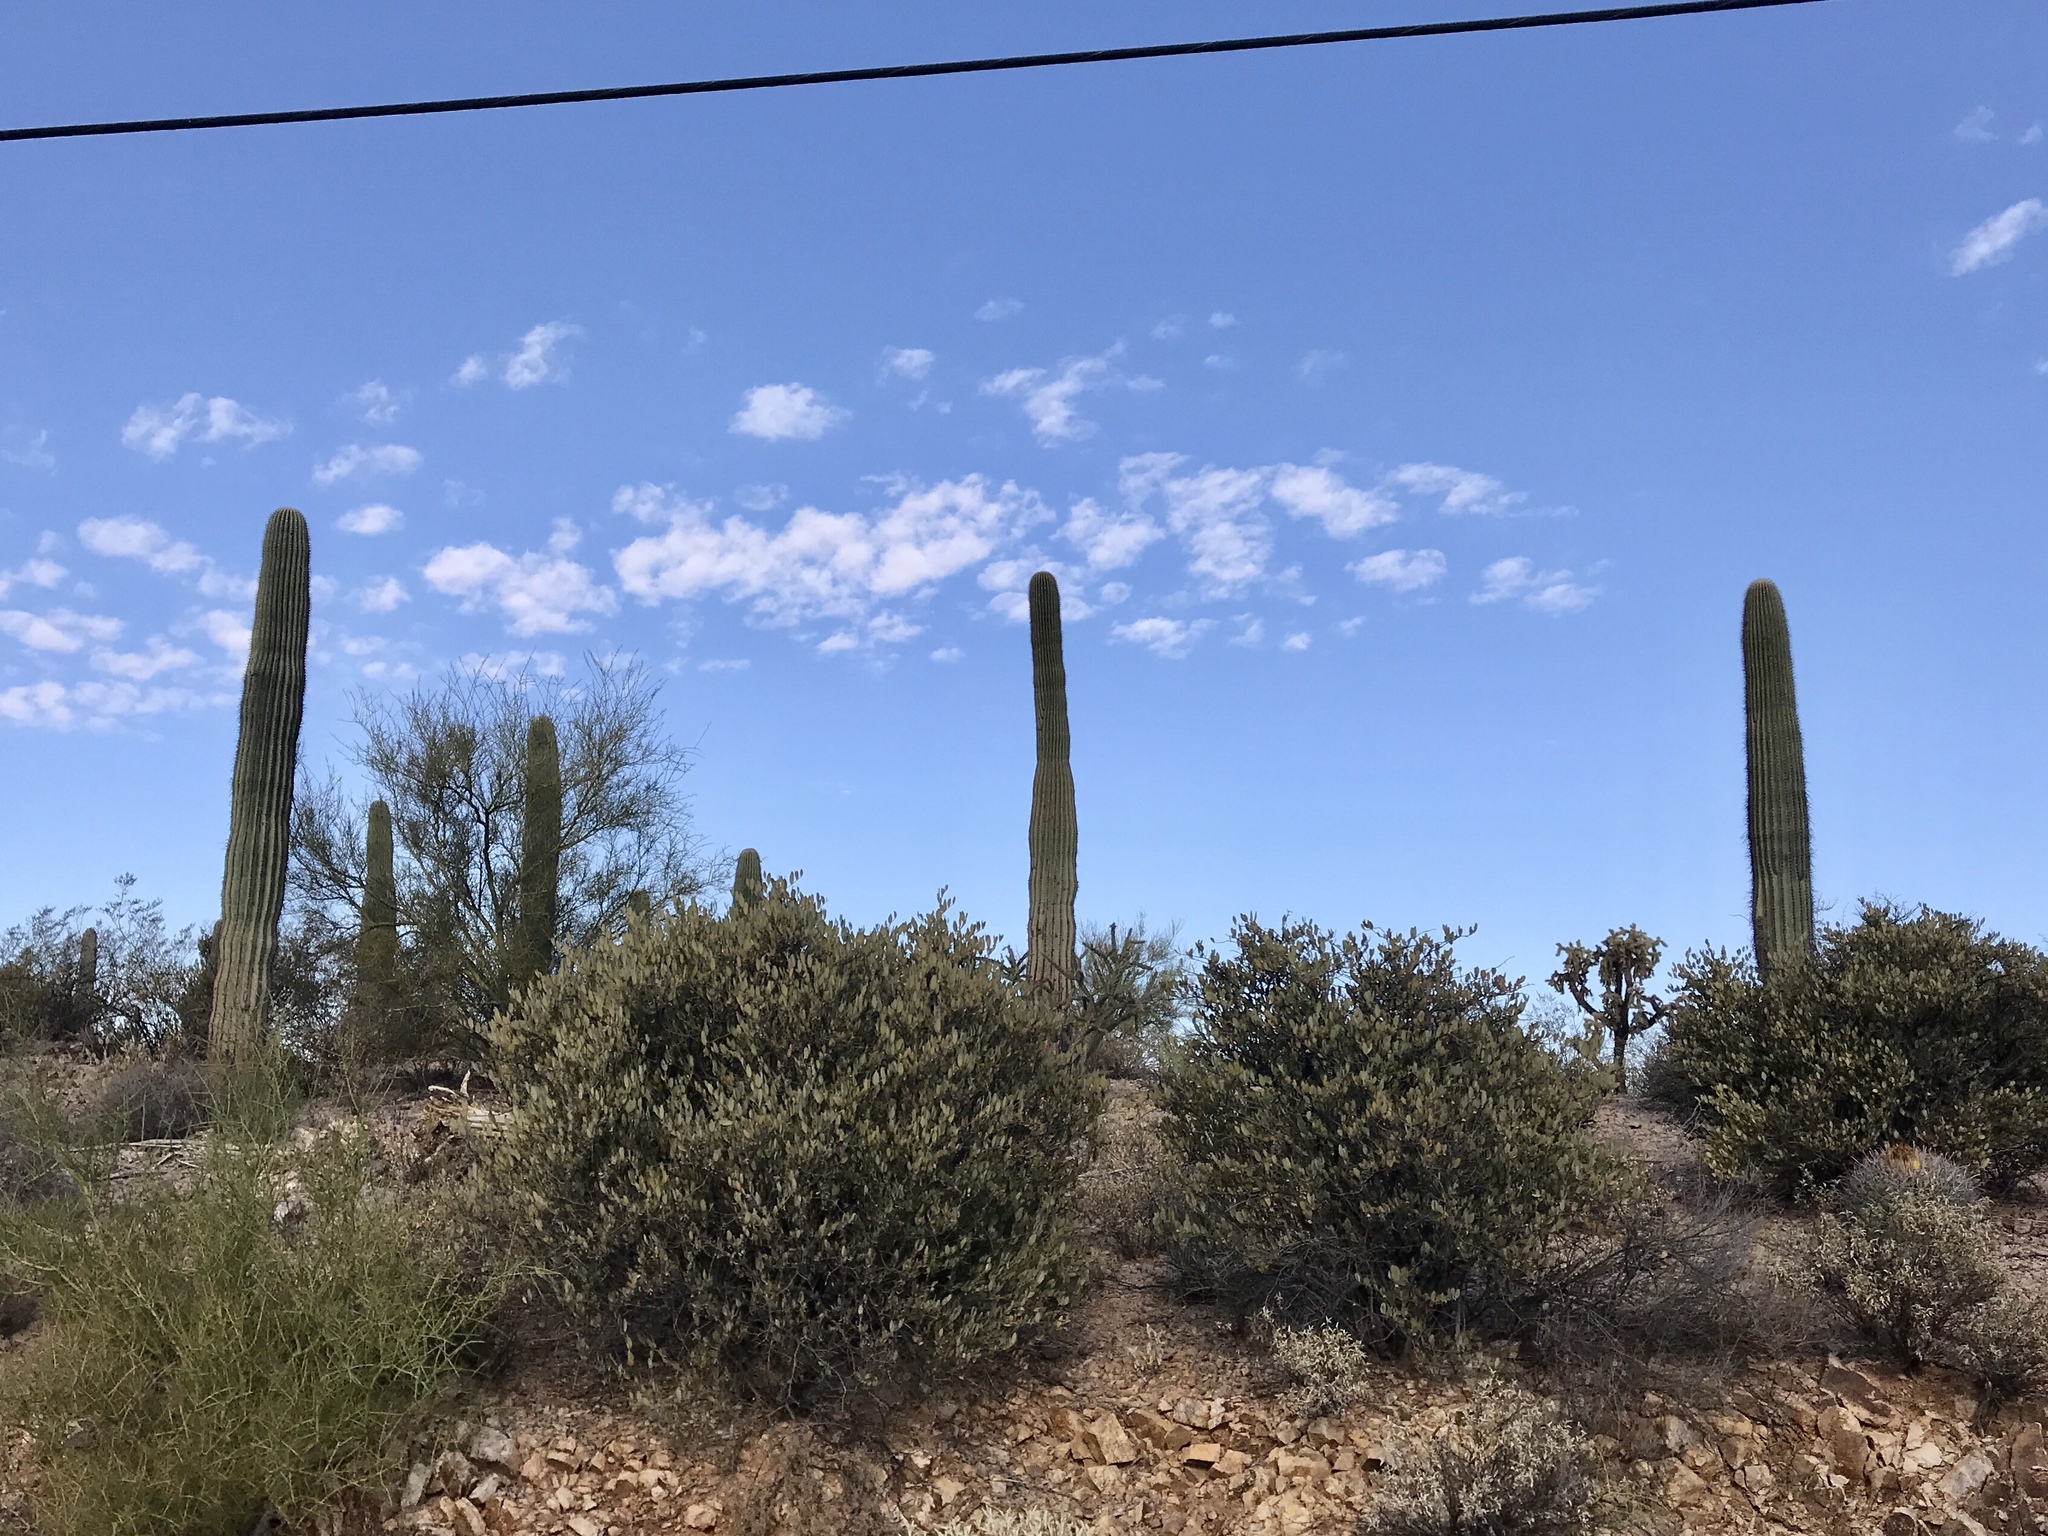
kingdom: Plantae
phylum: Tracheophyta
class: Magnoliopsida
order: Caryophyllales
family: Cactaceae
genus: Carnegiea
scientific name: Carnegiea gigantea
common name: Saguaro
